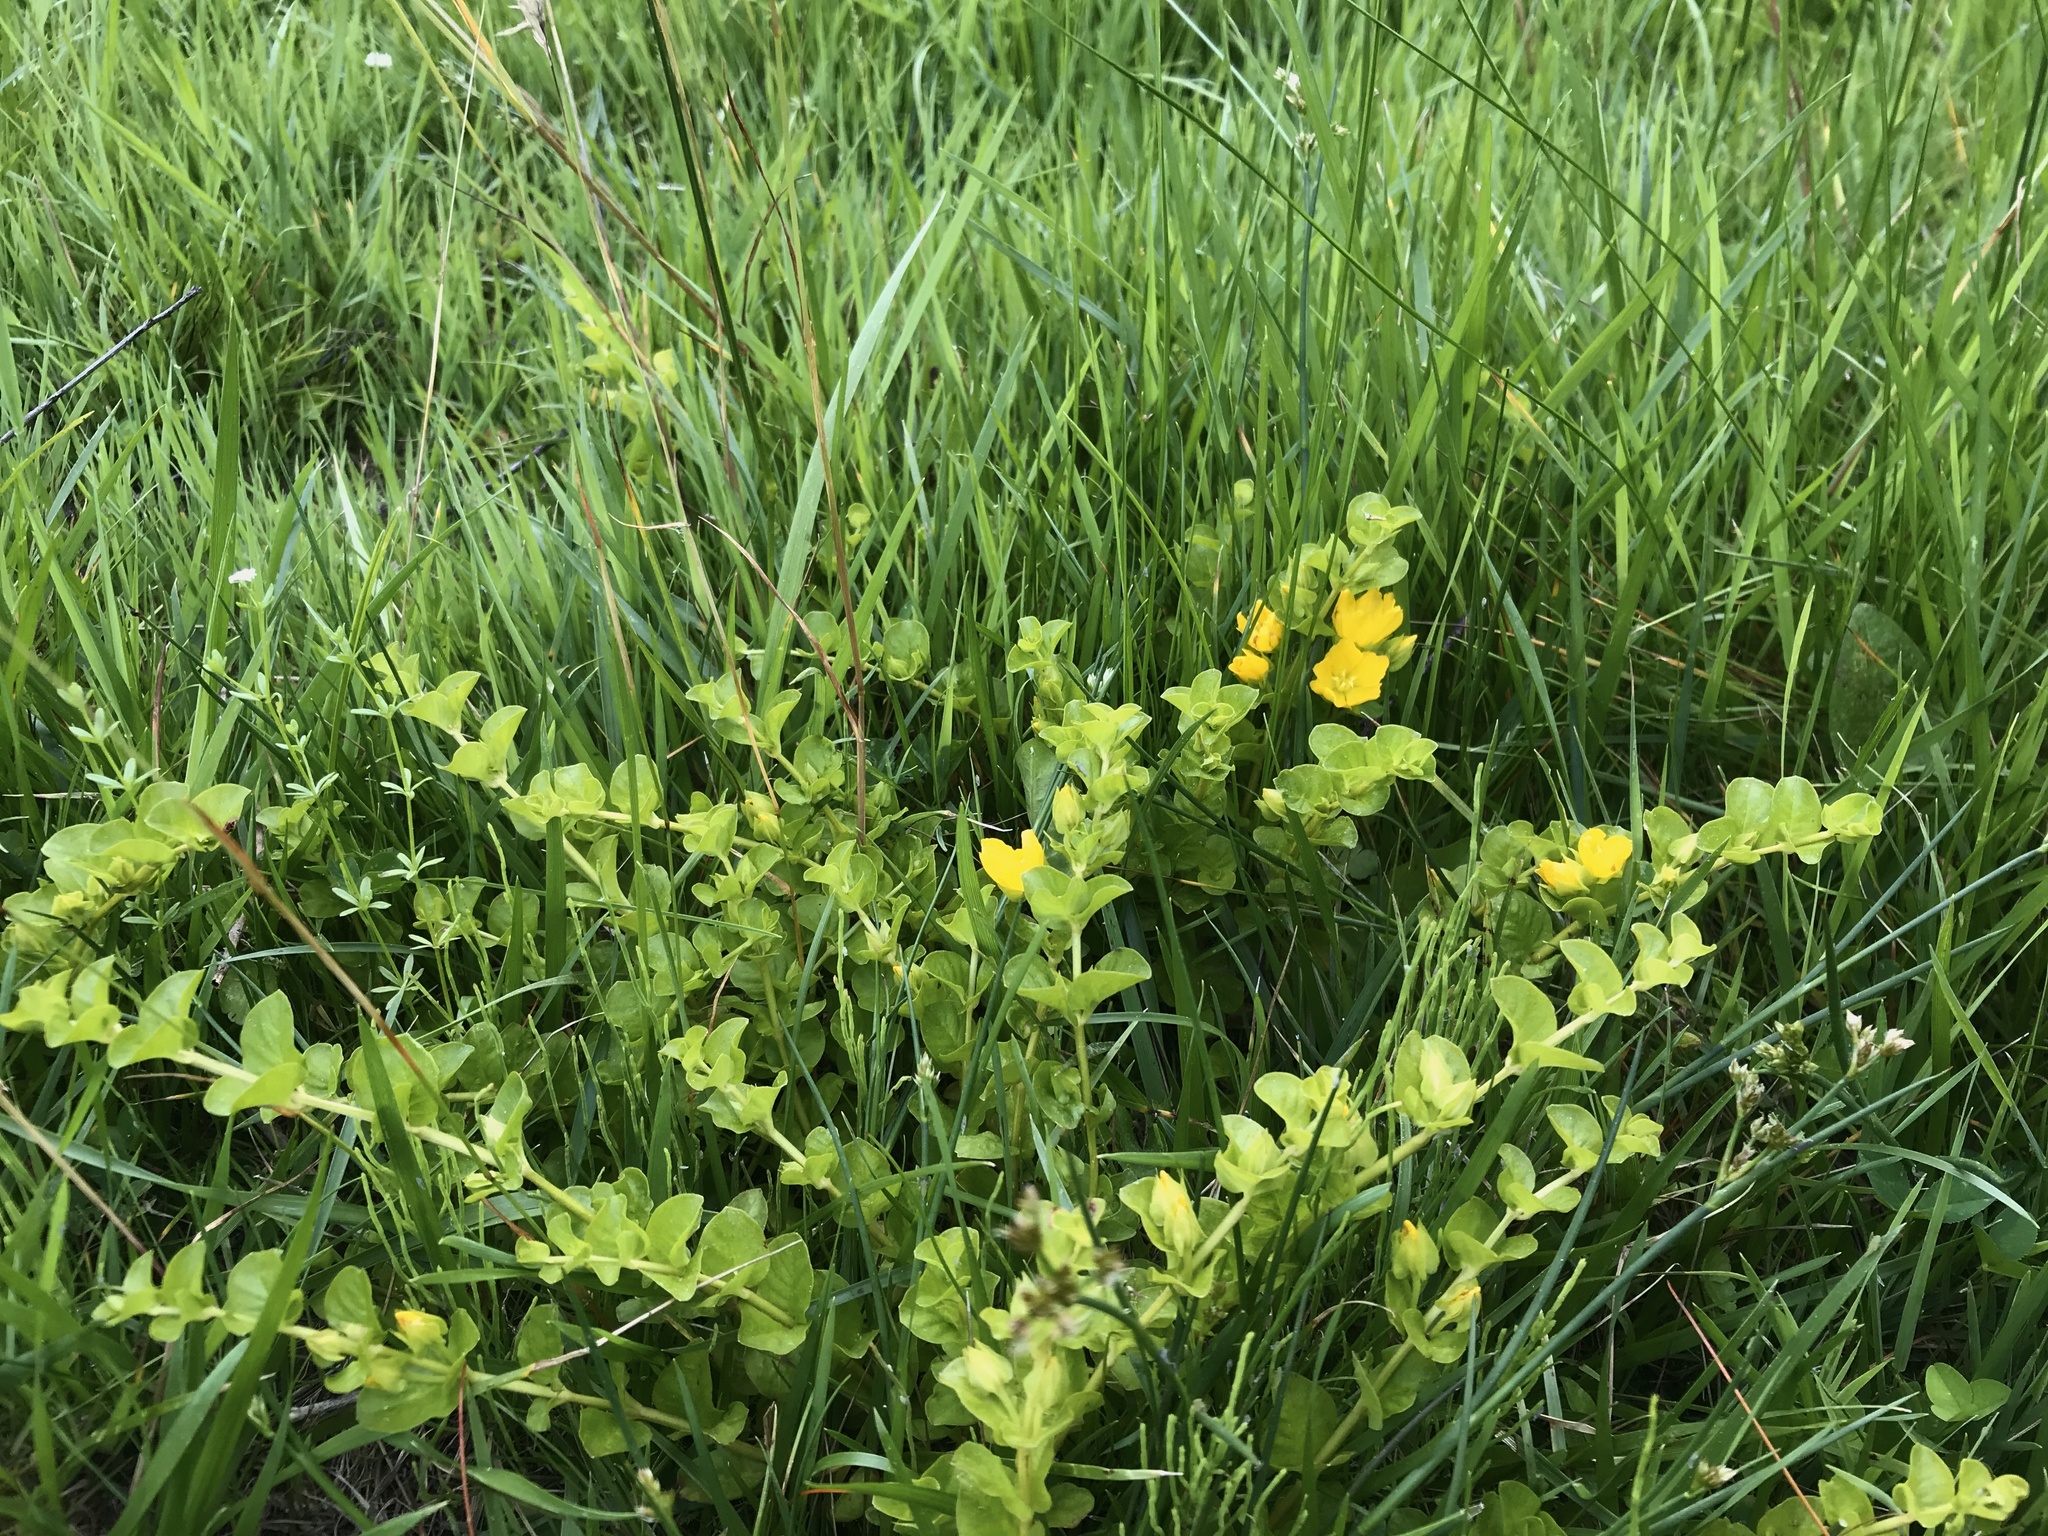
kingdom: Plantae
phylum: Tracheophyta
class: Magnoliopsida
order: Ericales
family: Primulaceae
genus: Lysimachia
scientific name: Lysimachia nummularia
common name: Moneywort
